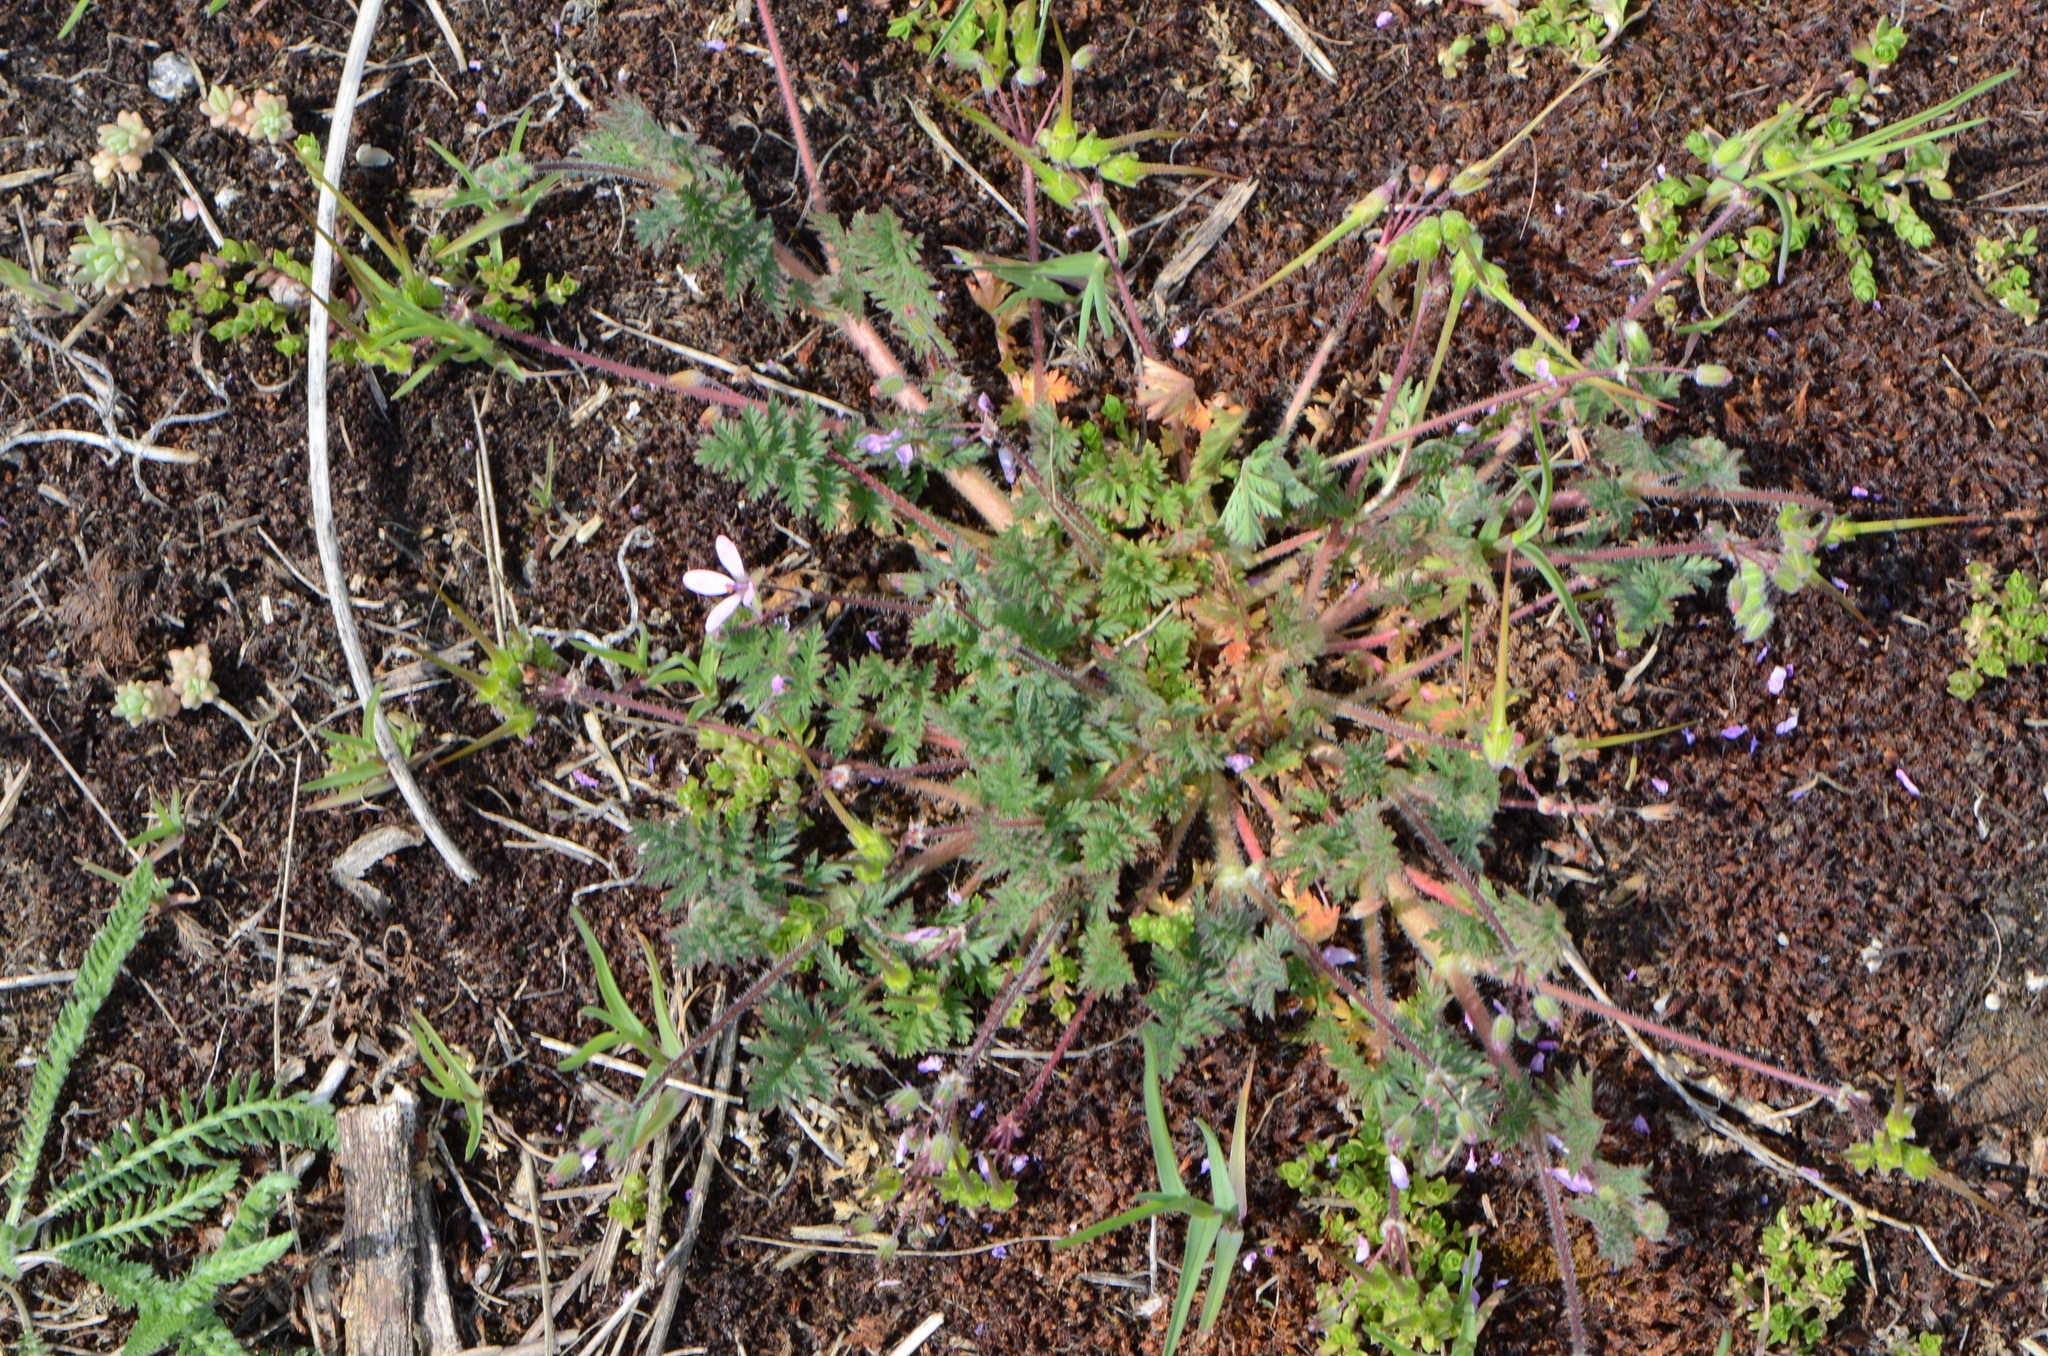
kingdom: Plantae
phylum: Tracheophyta
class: Magnoliopsida
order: Geraniales
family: Geraniaceae
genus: Erodium
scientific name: Erodium cicutarium
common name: Common stork's-bill
